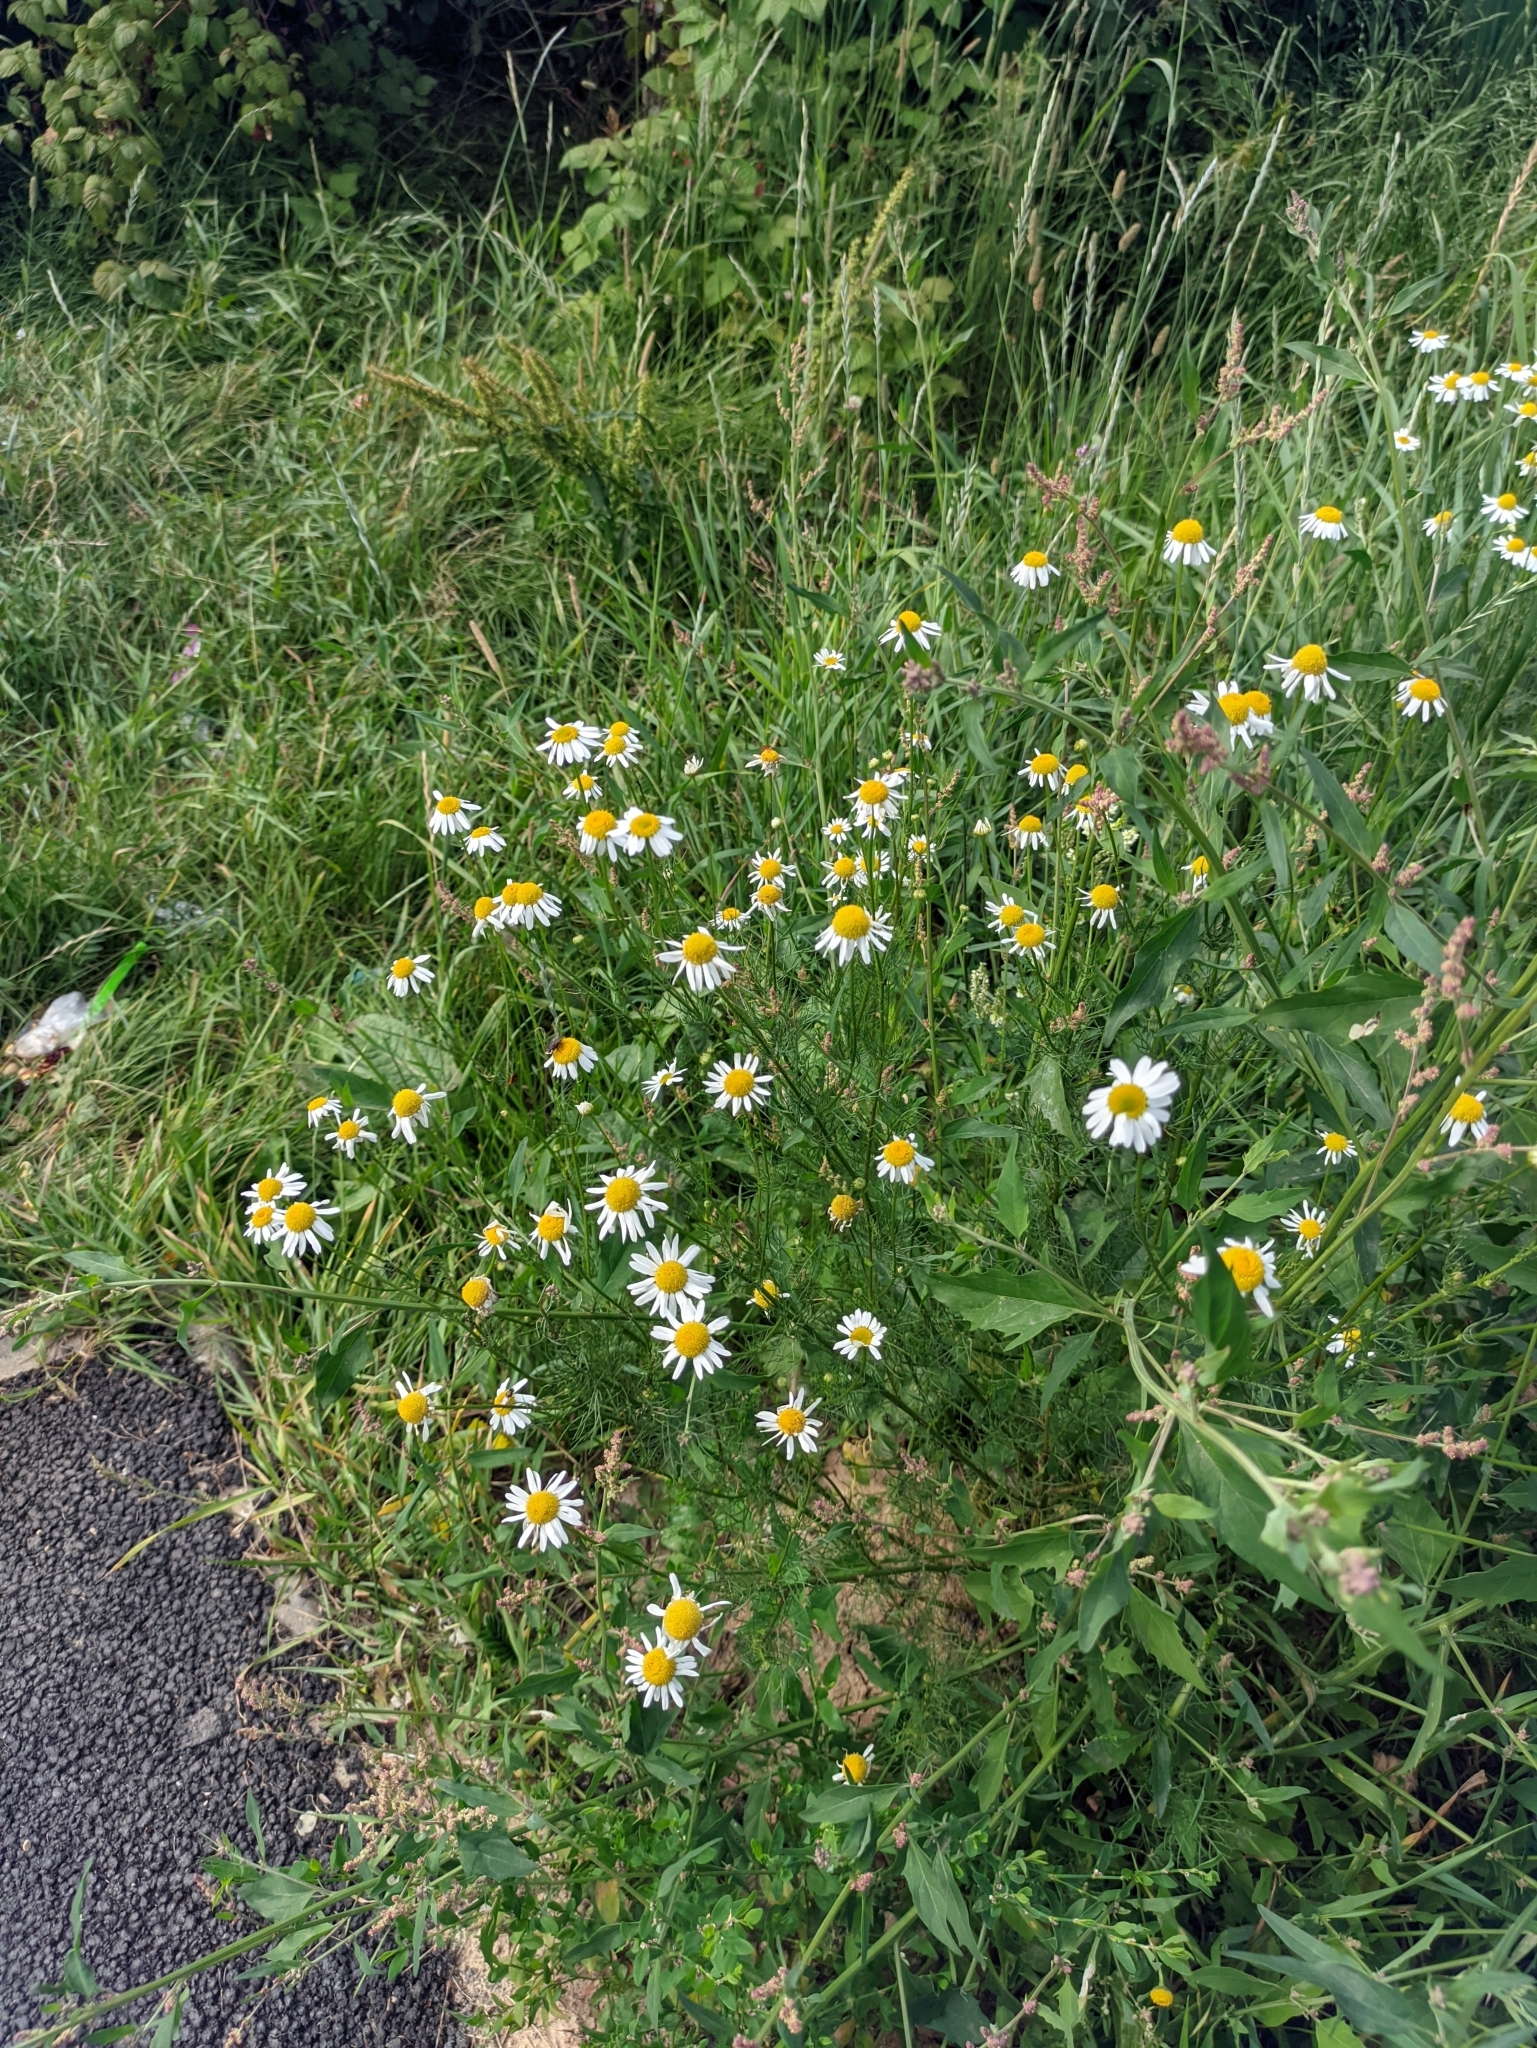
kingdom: Plantae
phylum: Tracheophyta
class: Magnoliopsida
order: Asterales
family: Asteraceae
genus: Tripleurospermum
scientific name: Tripleurospermum inodorum
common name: Scentless mayweed
